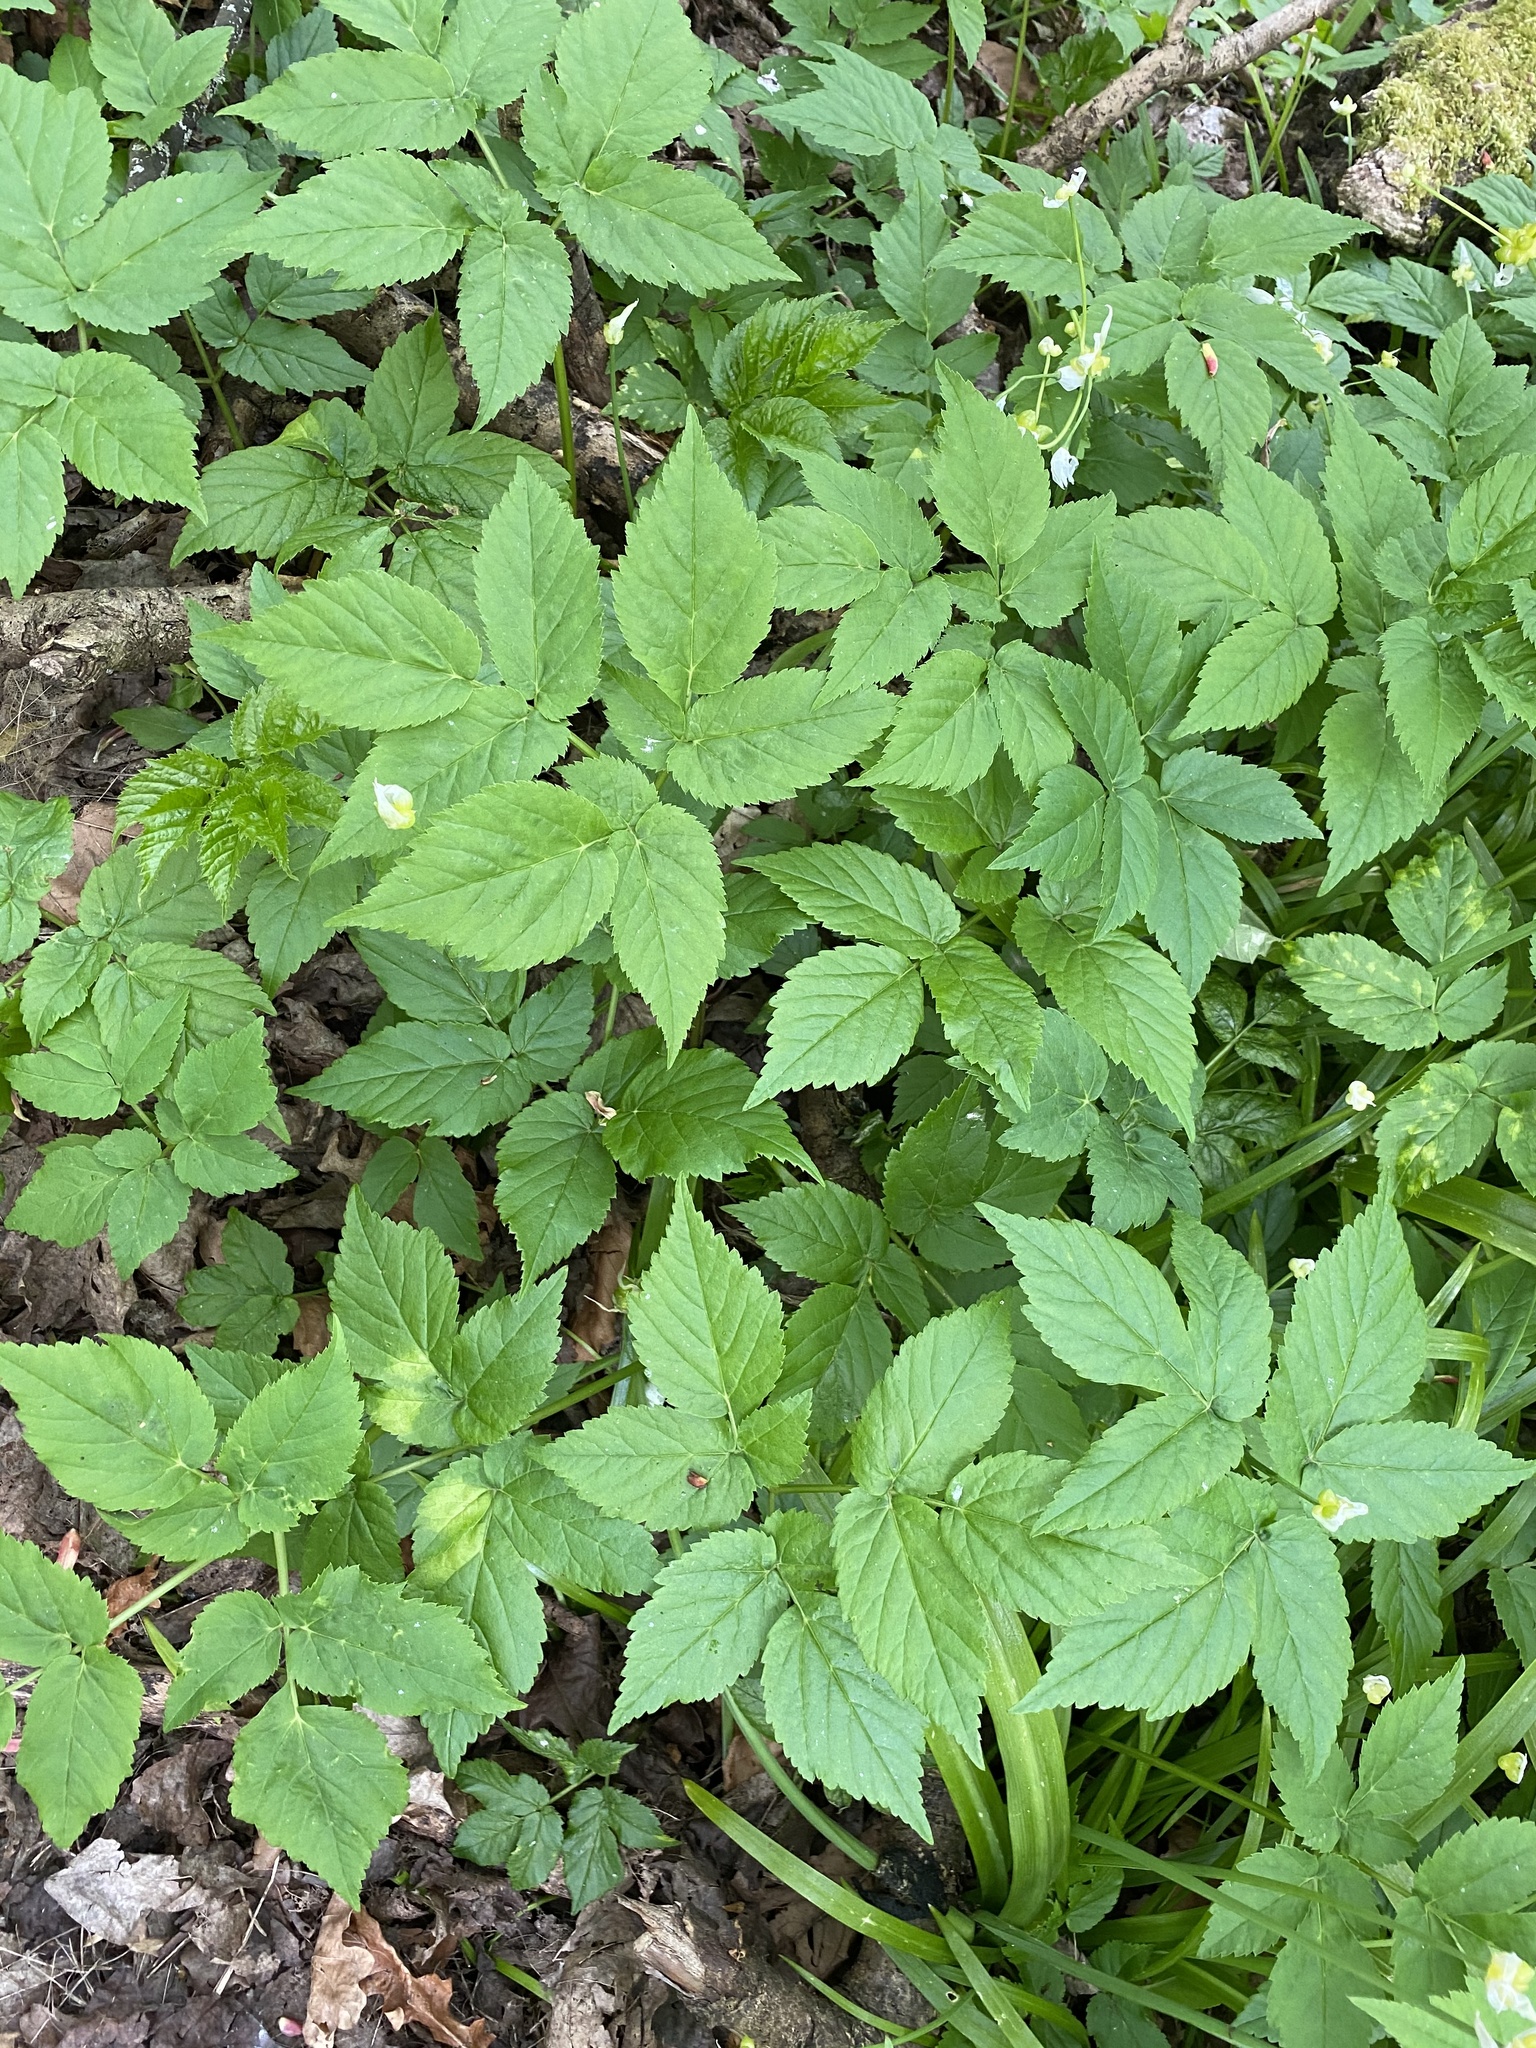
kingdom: Plantae
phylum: Tracheophyta
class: Magnoliopsida
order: Apiales
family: Apiaceae
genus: Aegopodium
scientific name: Aegopodium podagraria
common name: Ground-elder
